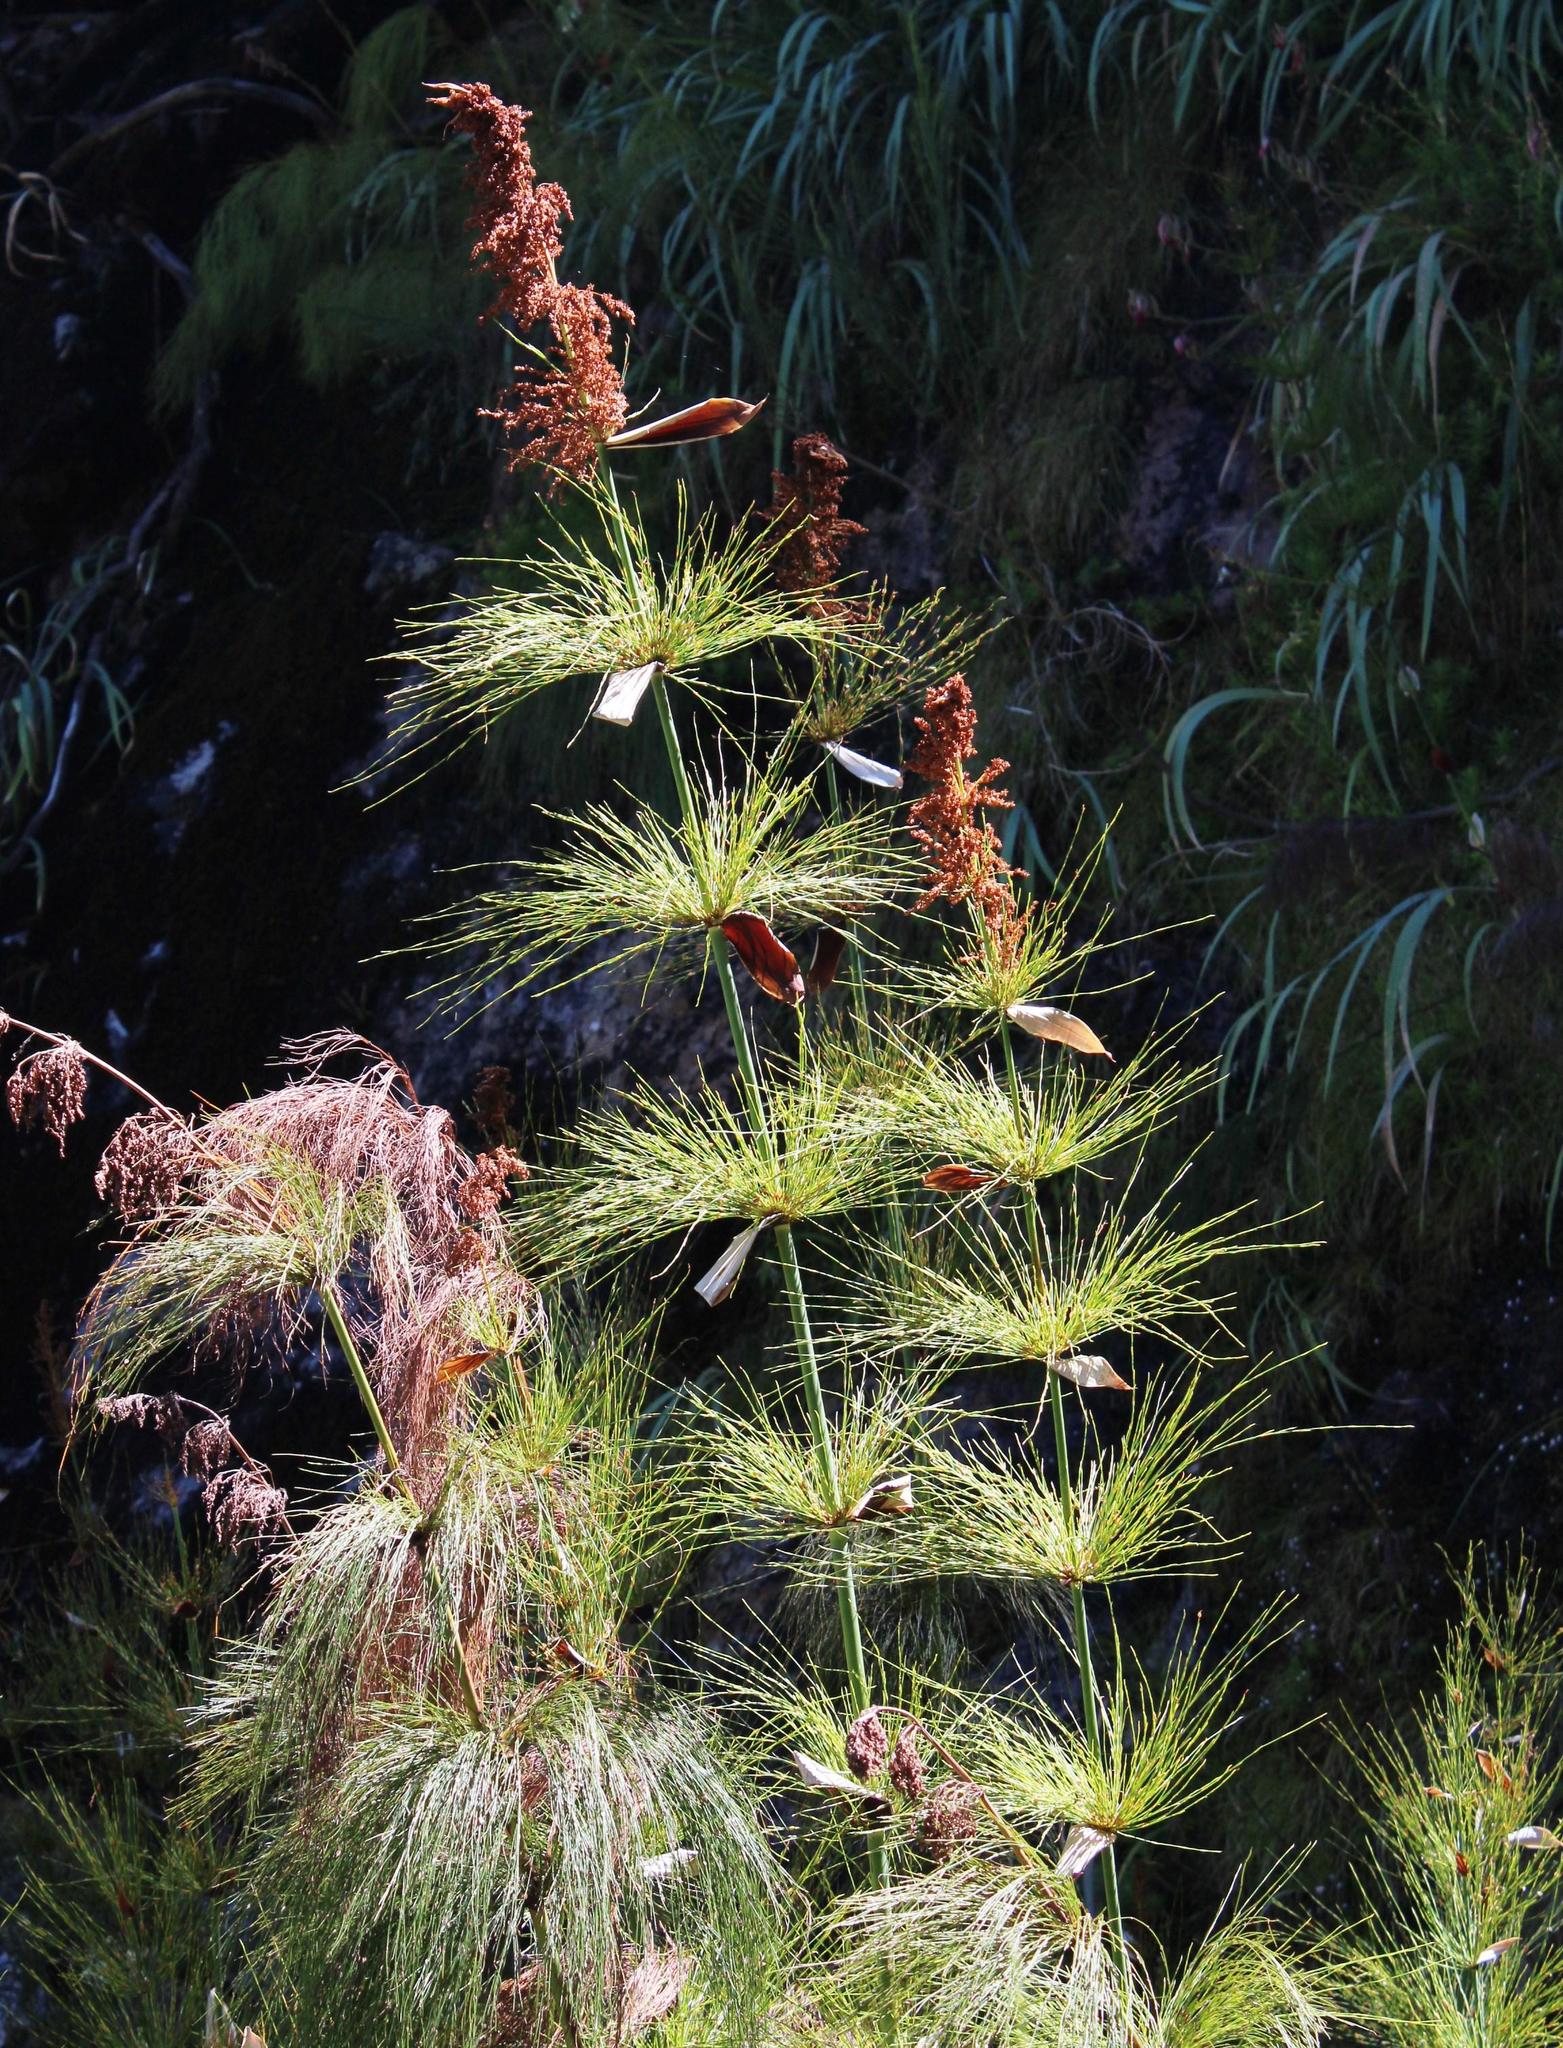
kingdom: Plantae
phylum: Tracheophyta
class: Liliopsida
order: Poales
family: Restionaceae
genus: Elegia
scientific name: Elegia capensis
